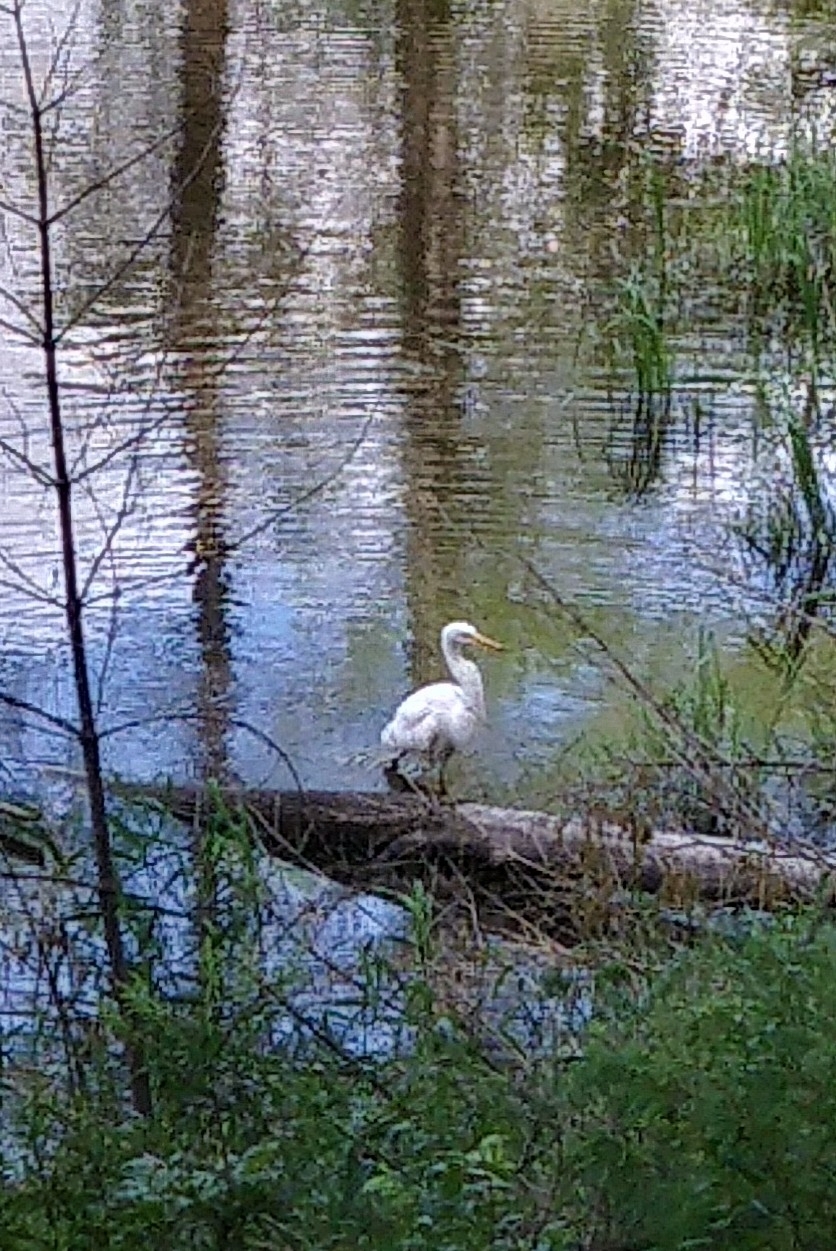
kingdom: Animalia
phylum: Chordata
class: Aves
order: Pelecaniformes
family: Ardeidae
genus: Ardea
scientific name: Ardea alba
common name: Great egret
